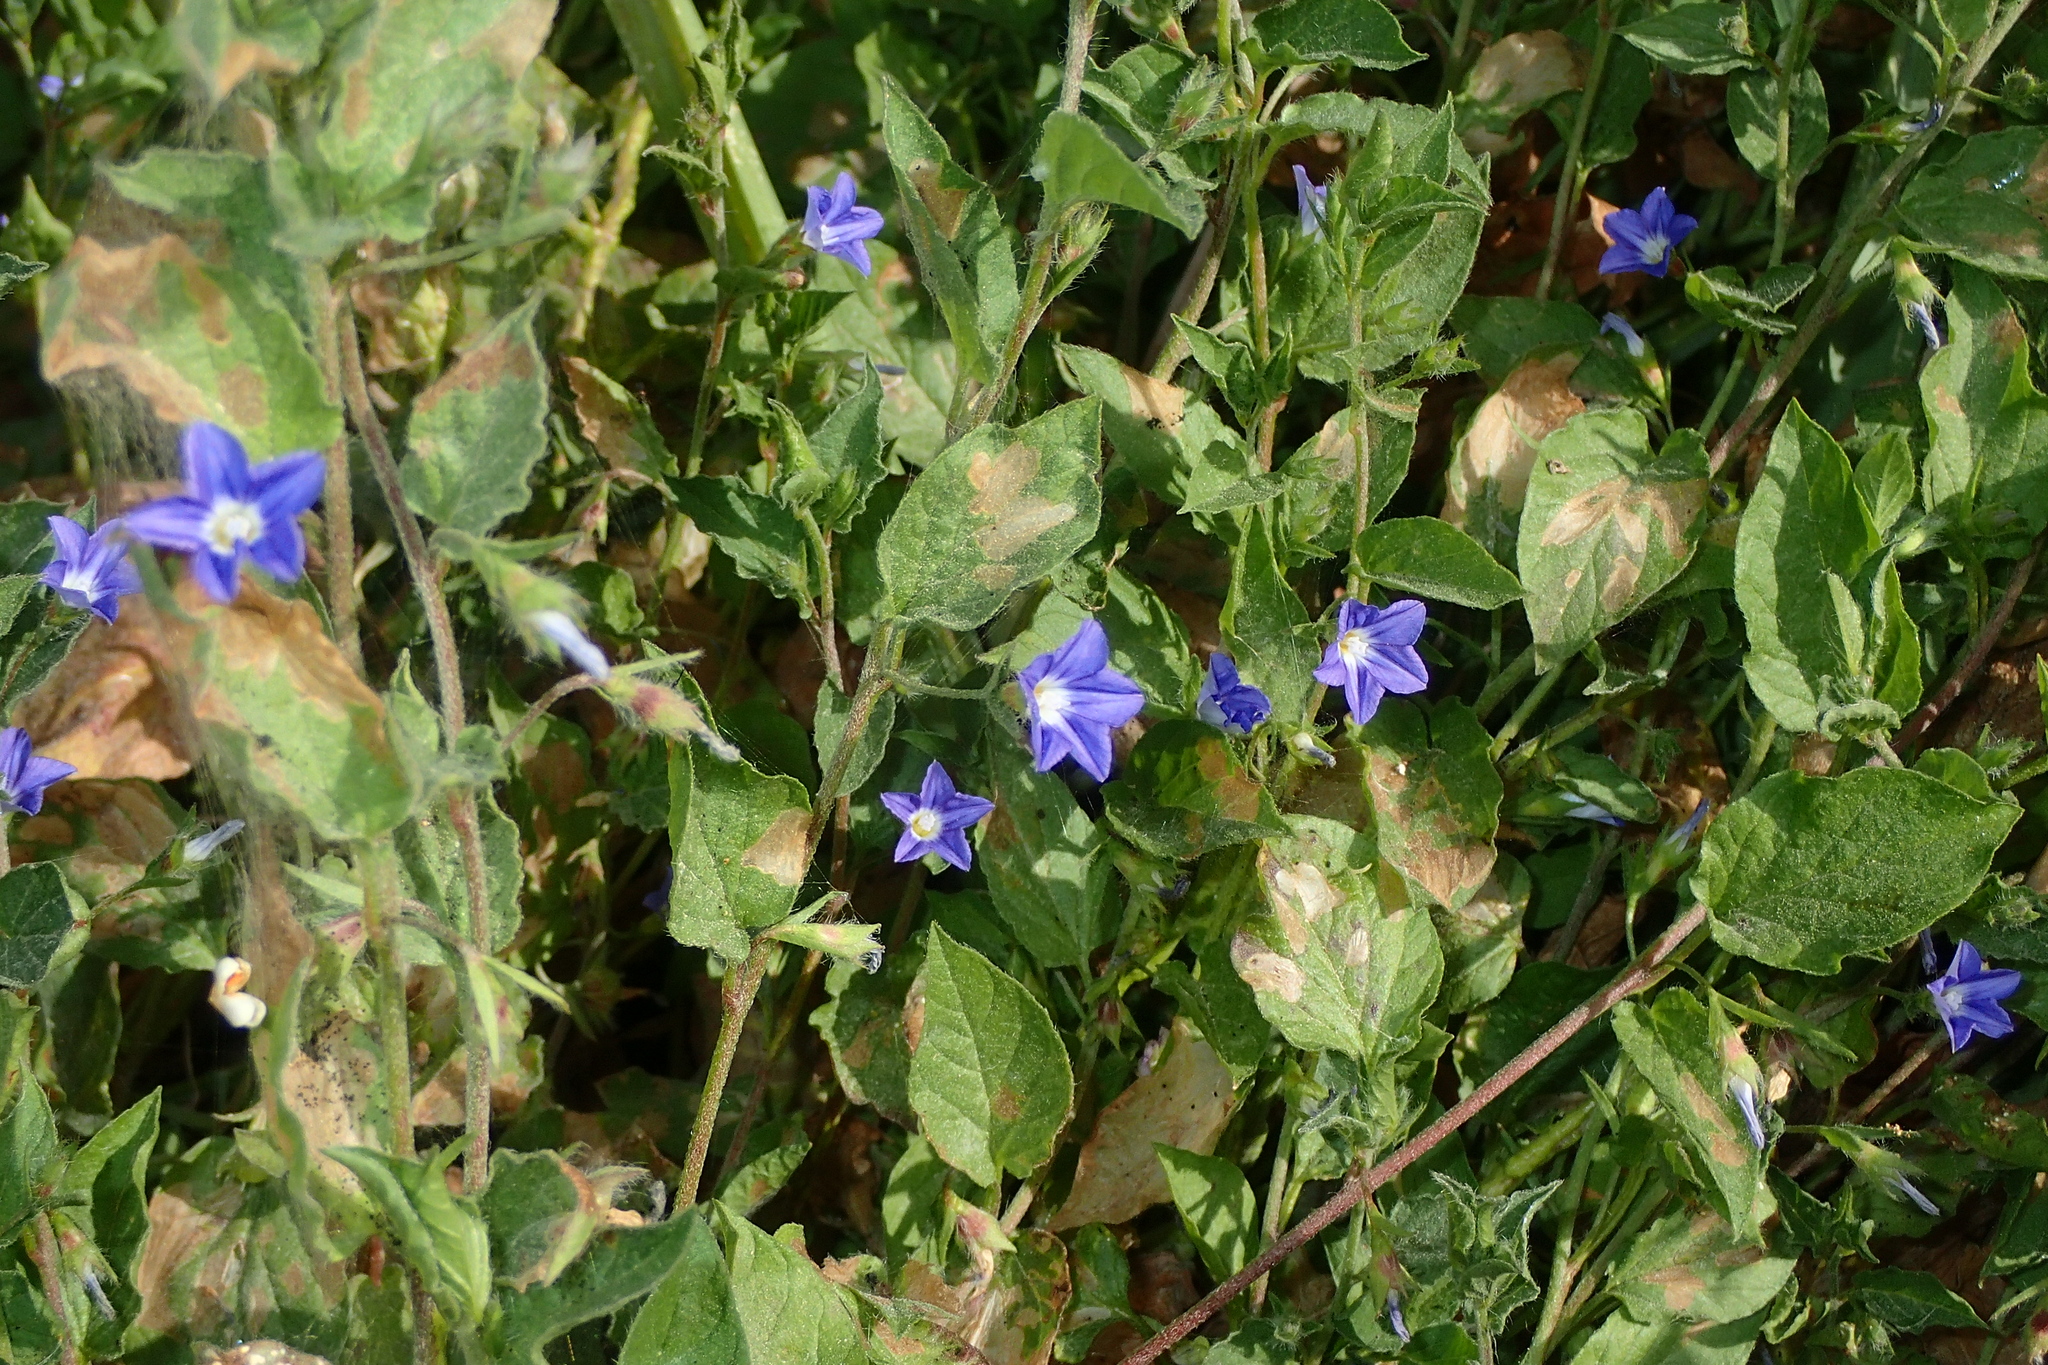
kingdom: Plantae
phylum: Tracheophyta
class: Magnoliopsida
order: Solanales
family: Convolvulaceae
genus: Convolvulus
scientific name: Convolvulus siculus
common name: Small blue-convolvulus
